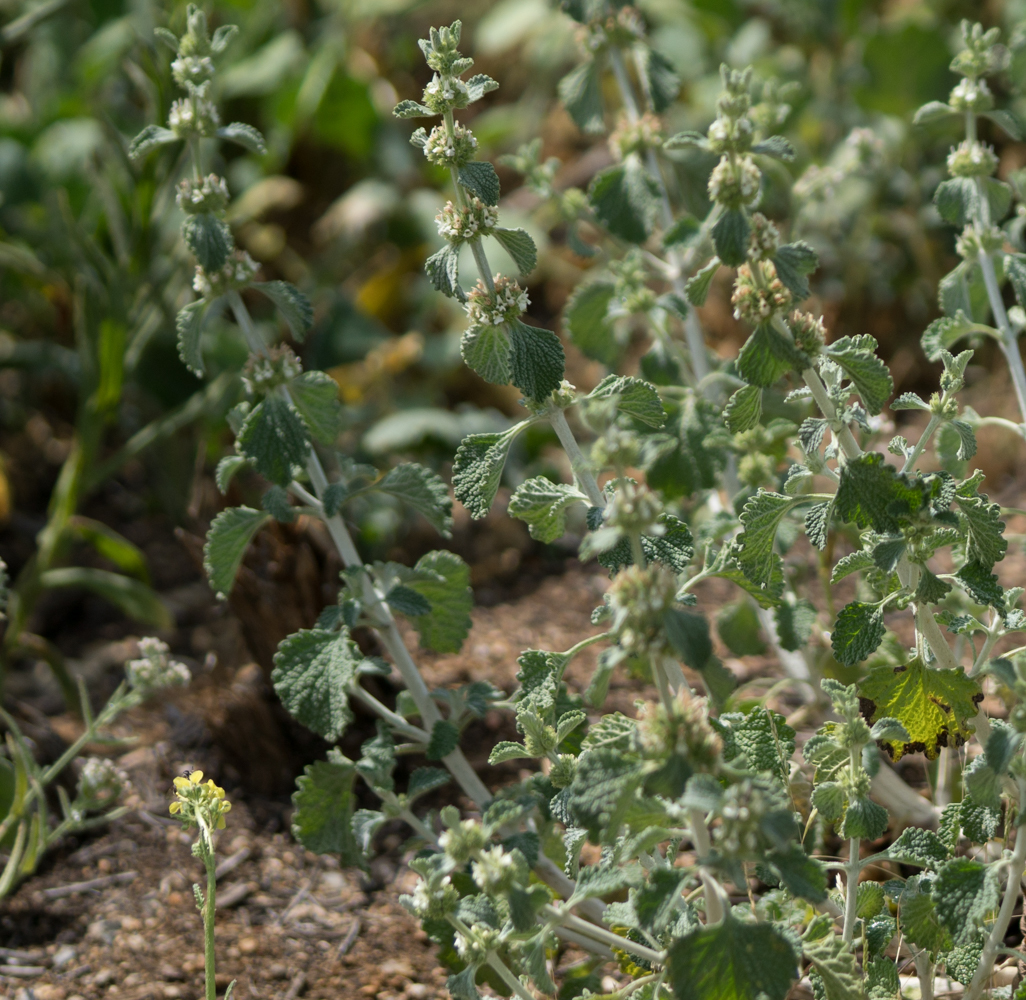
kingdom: Plantae
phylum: Tracheophyta
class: Magnoliopsida
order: Lamiales
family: Lamiaceae
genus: Marrubium
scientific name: Marrubium vulgare
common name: Horehound
